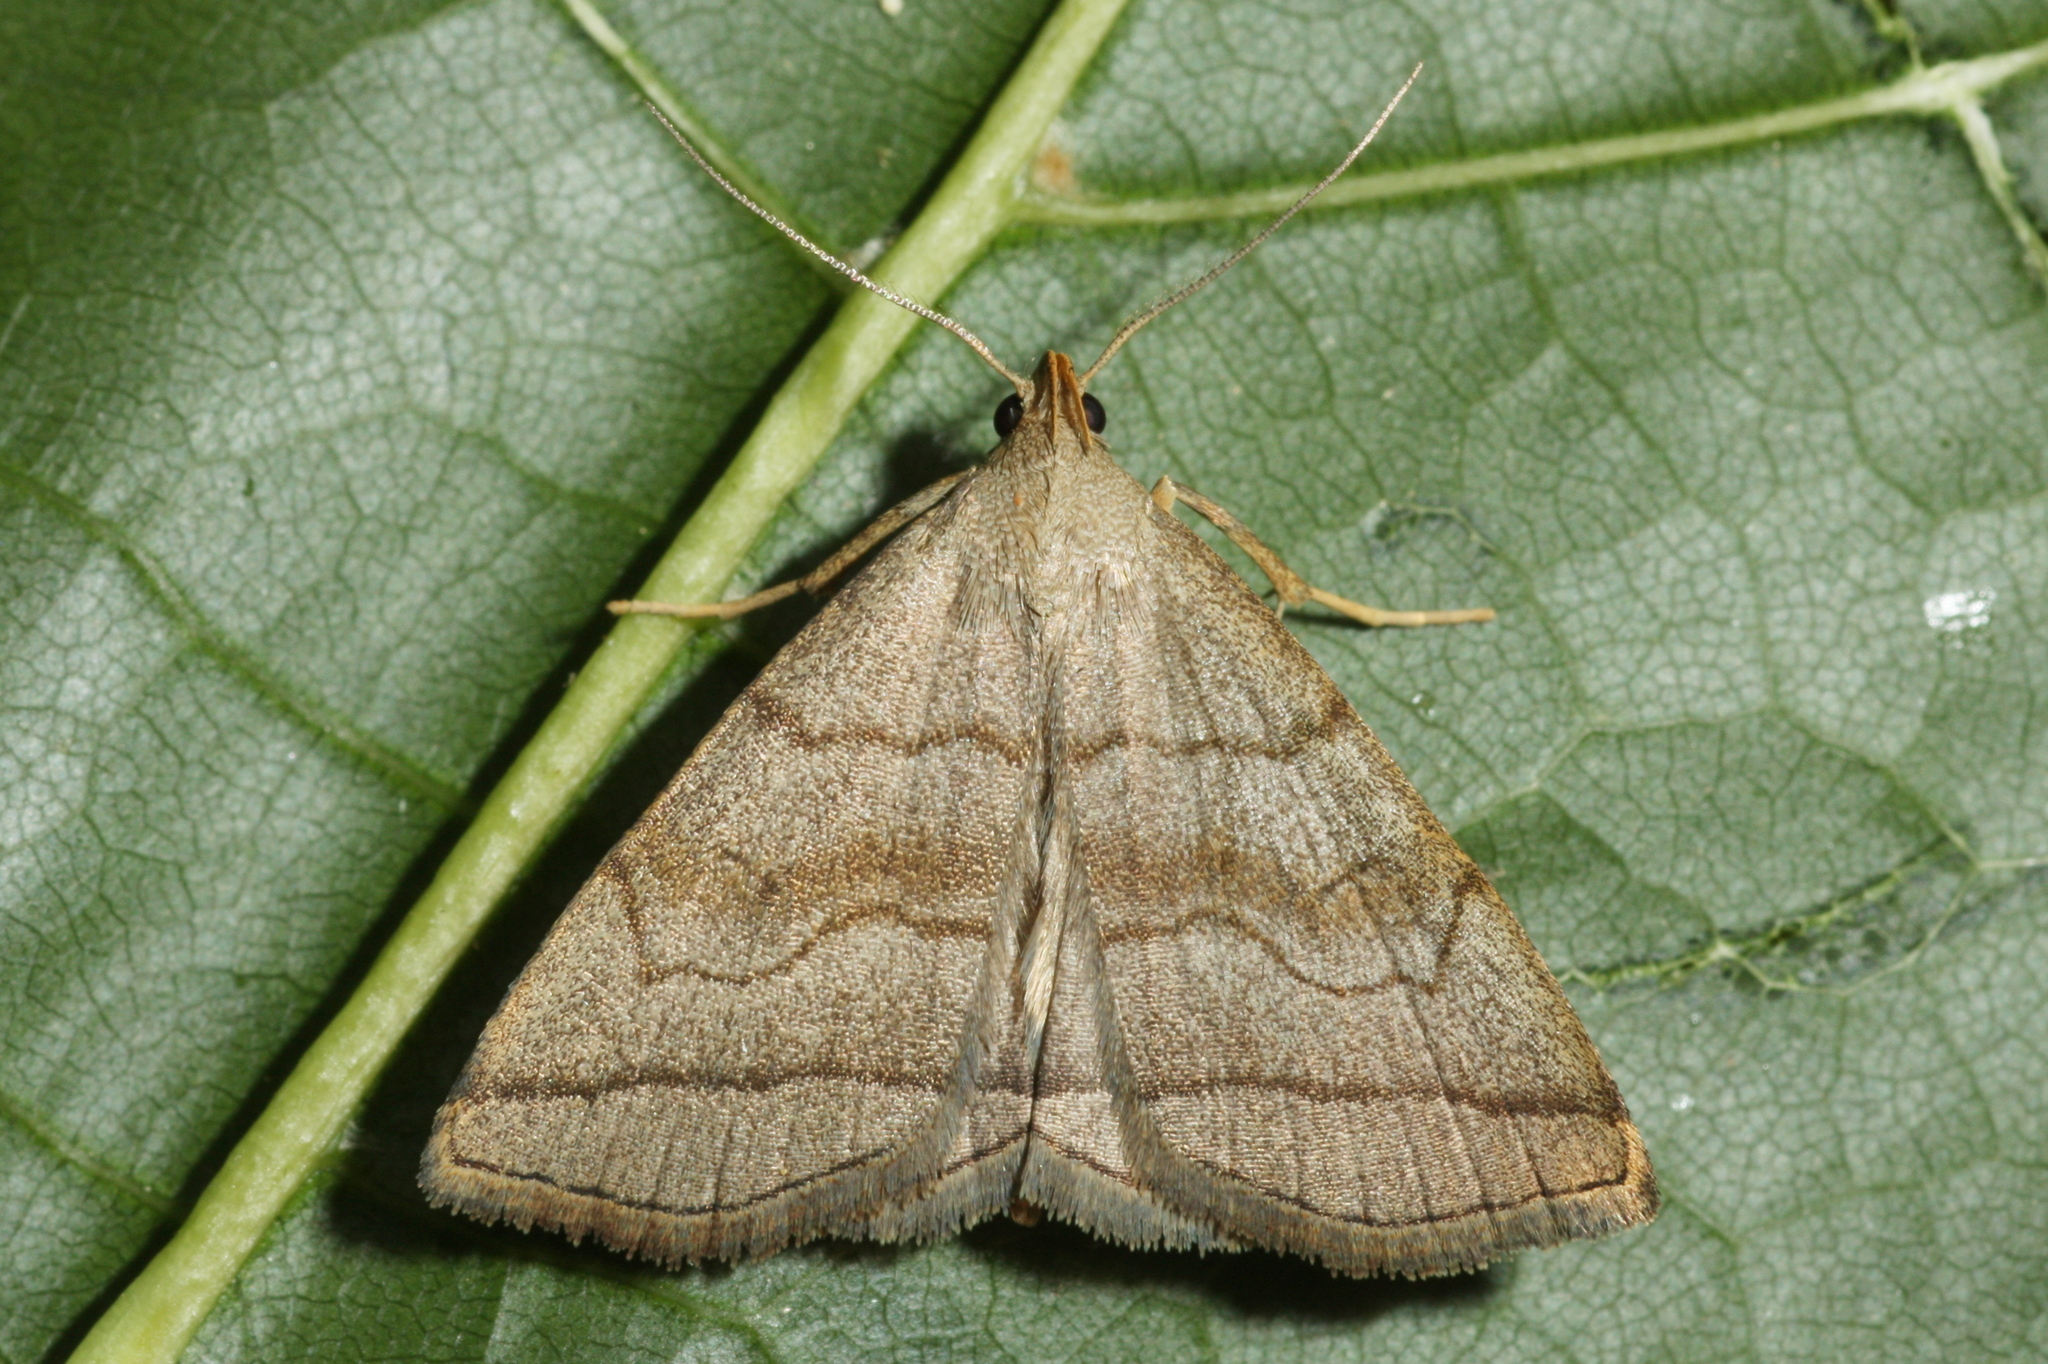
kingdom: Animalia
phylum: Arthropoda
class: Insecta
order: Lepidoptera
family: Erebidae
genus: Herminia
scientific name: Herminia tarsicrinalis
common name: Shaded fan-foot
